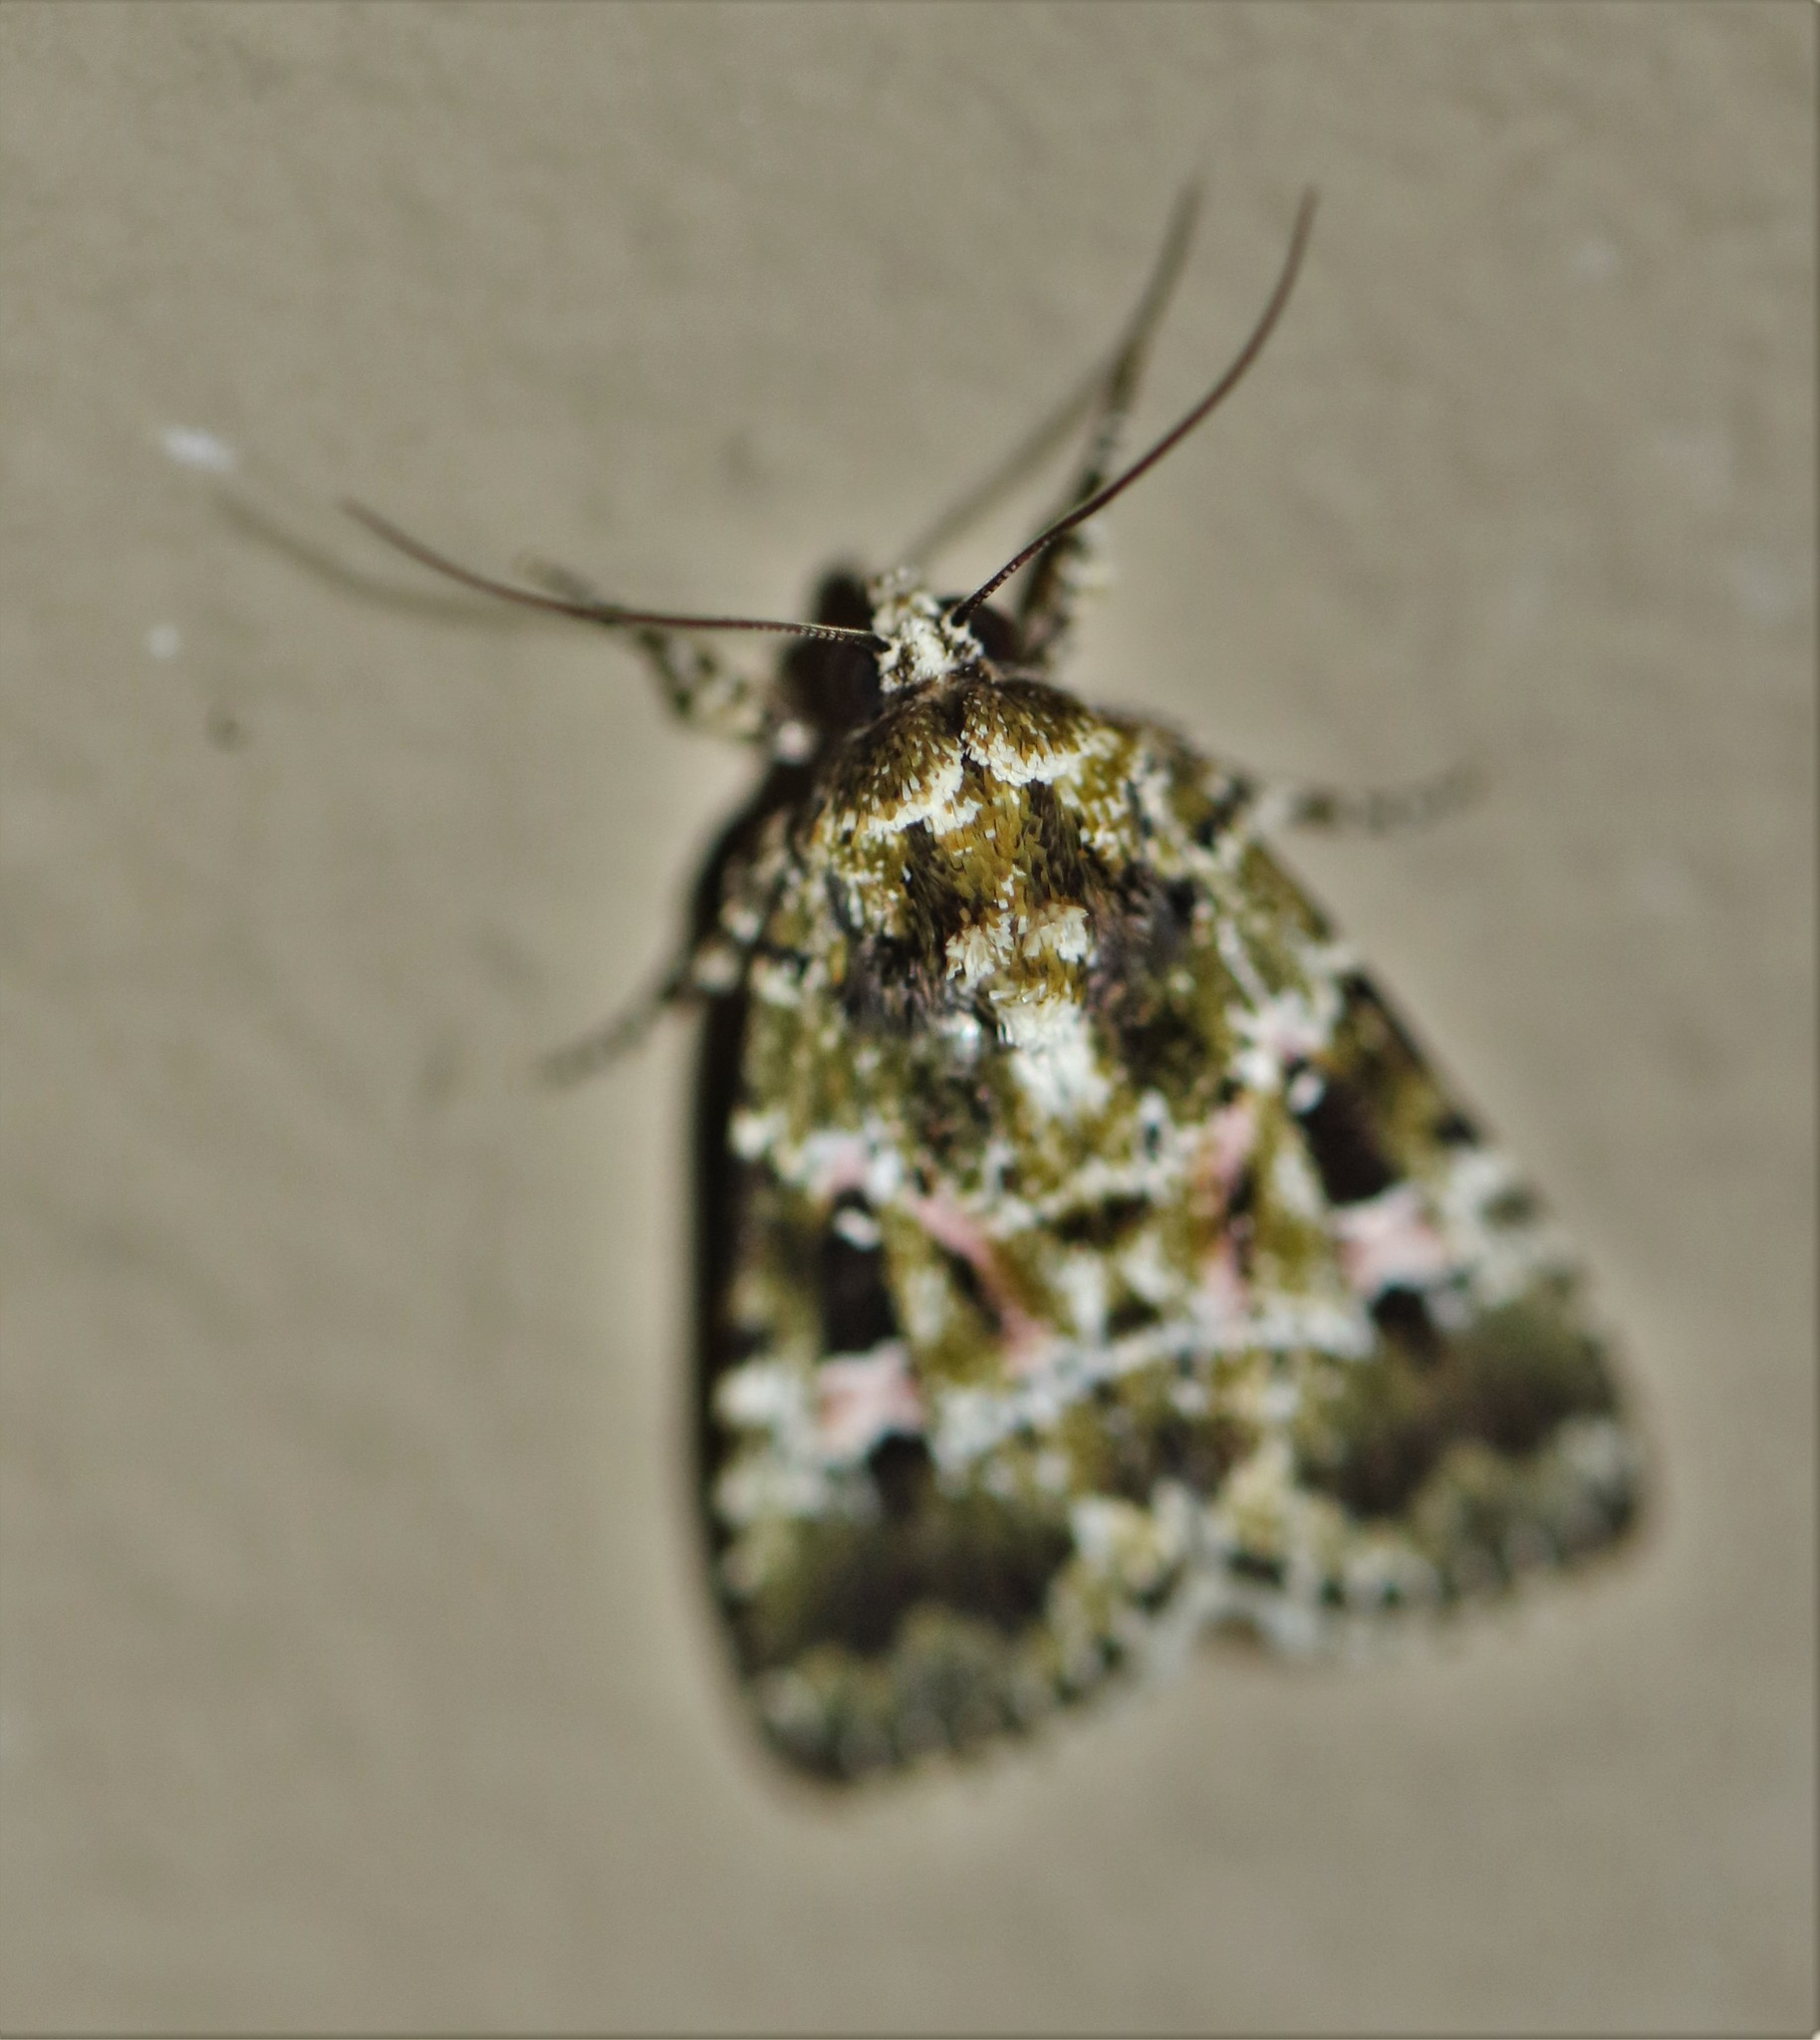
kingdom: Animalia
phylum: Arthropoda
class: Insecta
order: Lepidoptera
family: Noctuidae
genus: Elaphria
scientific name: Elaphria pulchra
